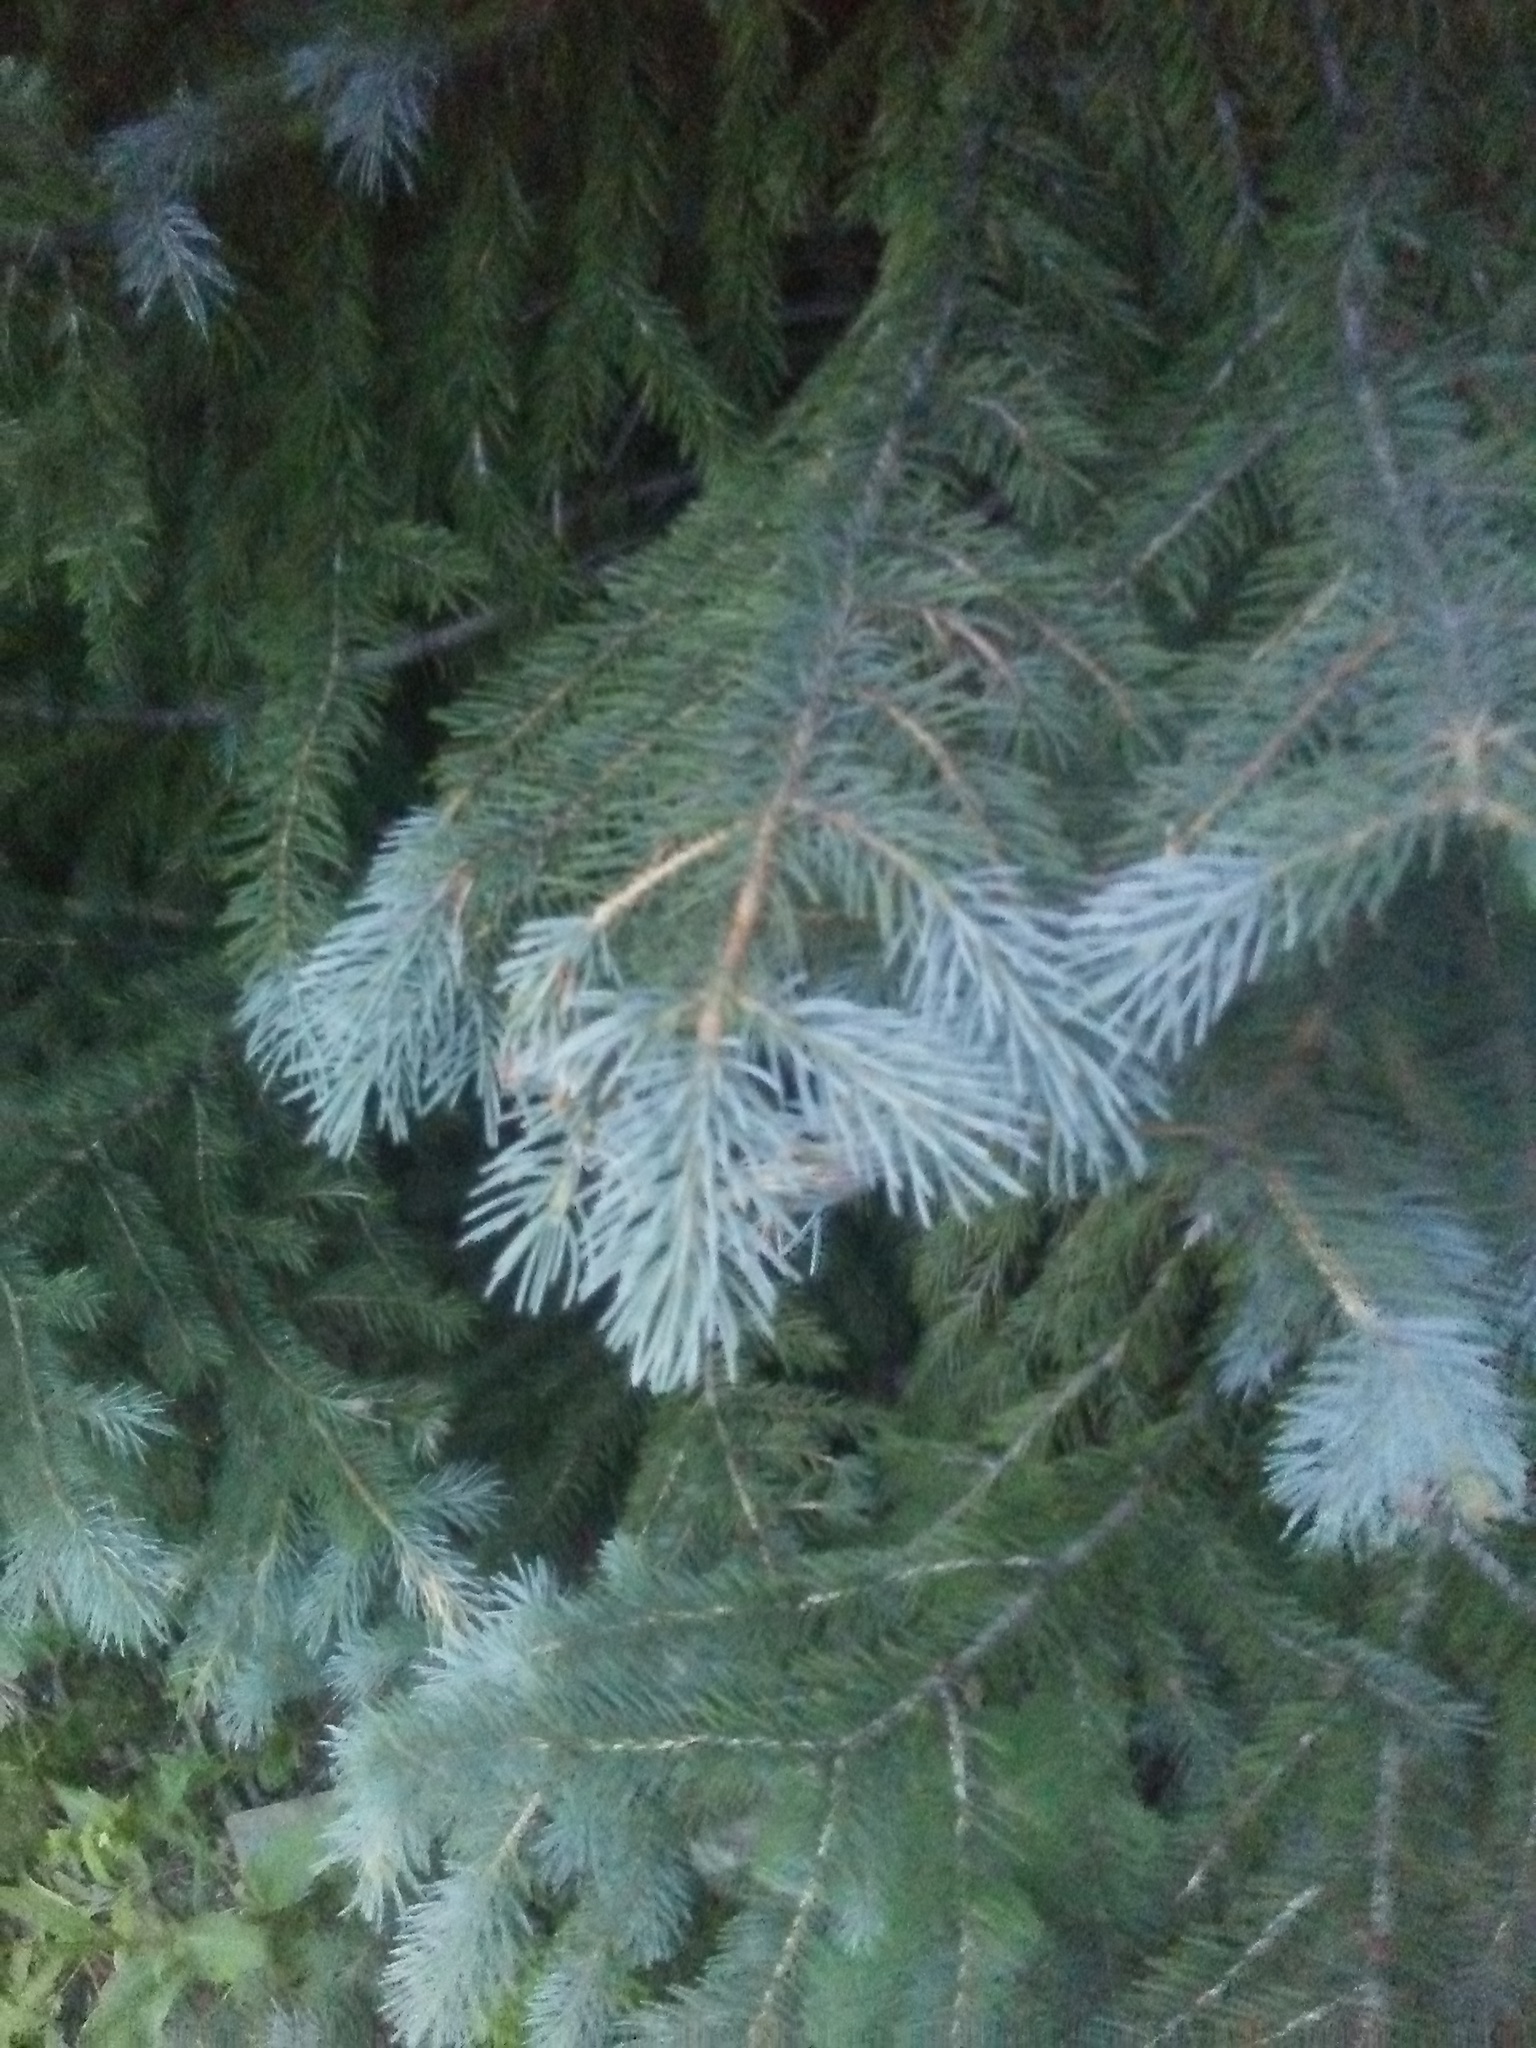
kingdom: Plantae
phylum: Tracheophyta
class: Pinopsida
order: Pinales
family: Pinaceae
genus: Picea
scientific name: Picea pungens
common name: Colorado spruce
